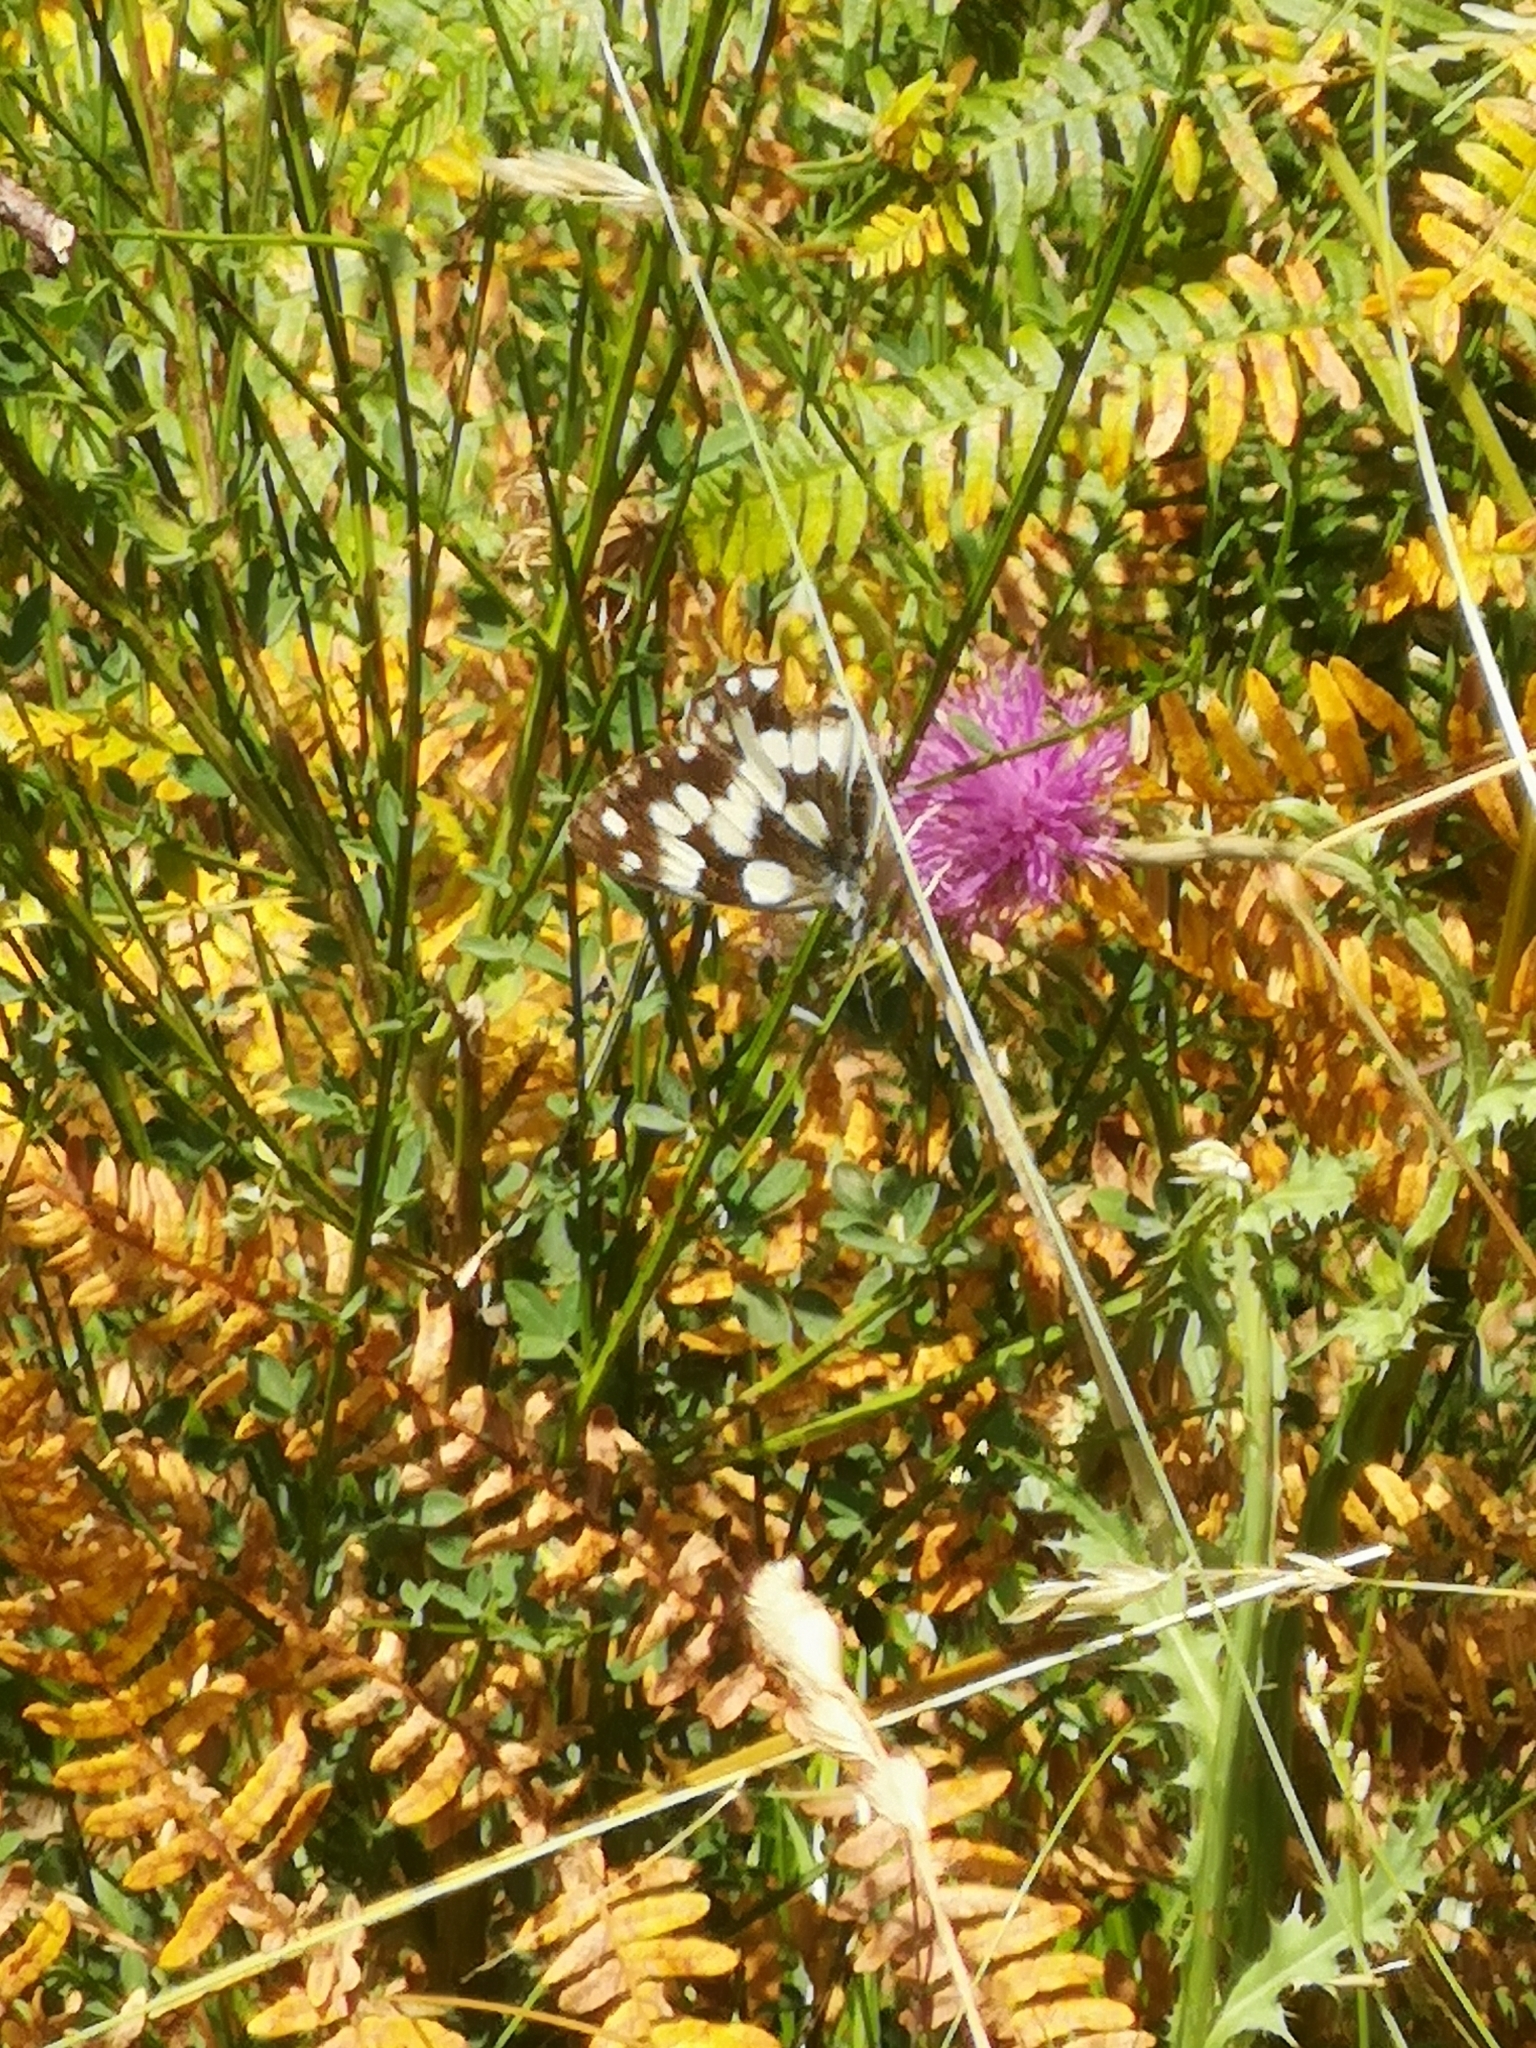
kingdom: Animalia
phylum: Arthropoda
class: Insecta
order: Lepidoptera
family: Nymphalidae
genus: Melanargia
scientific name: Melanargia galathea
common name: Marbled white
